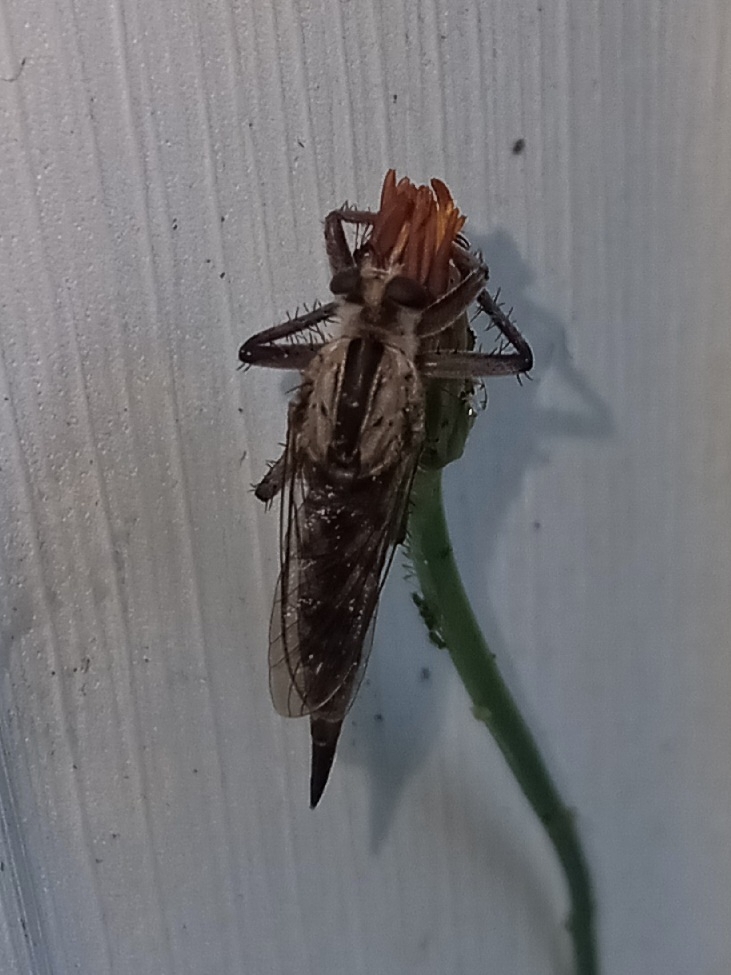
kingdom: Animalia
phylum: Arthropoda
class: Insecta
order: Diptera
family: Asilidae
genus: Triorla
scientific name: Triorla interrupta
